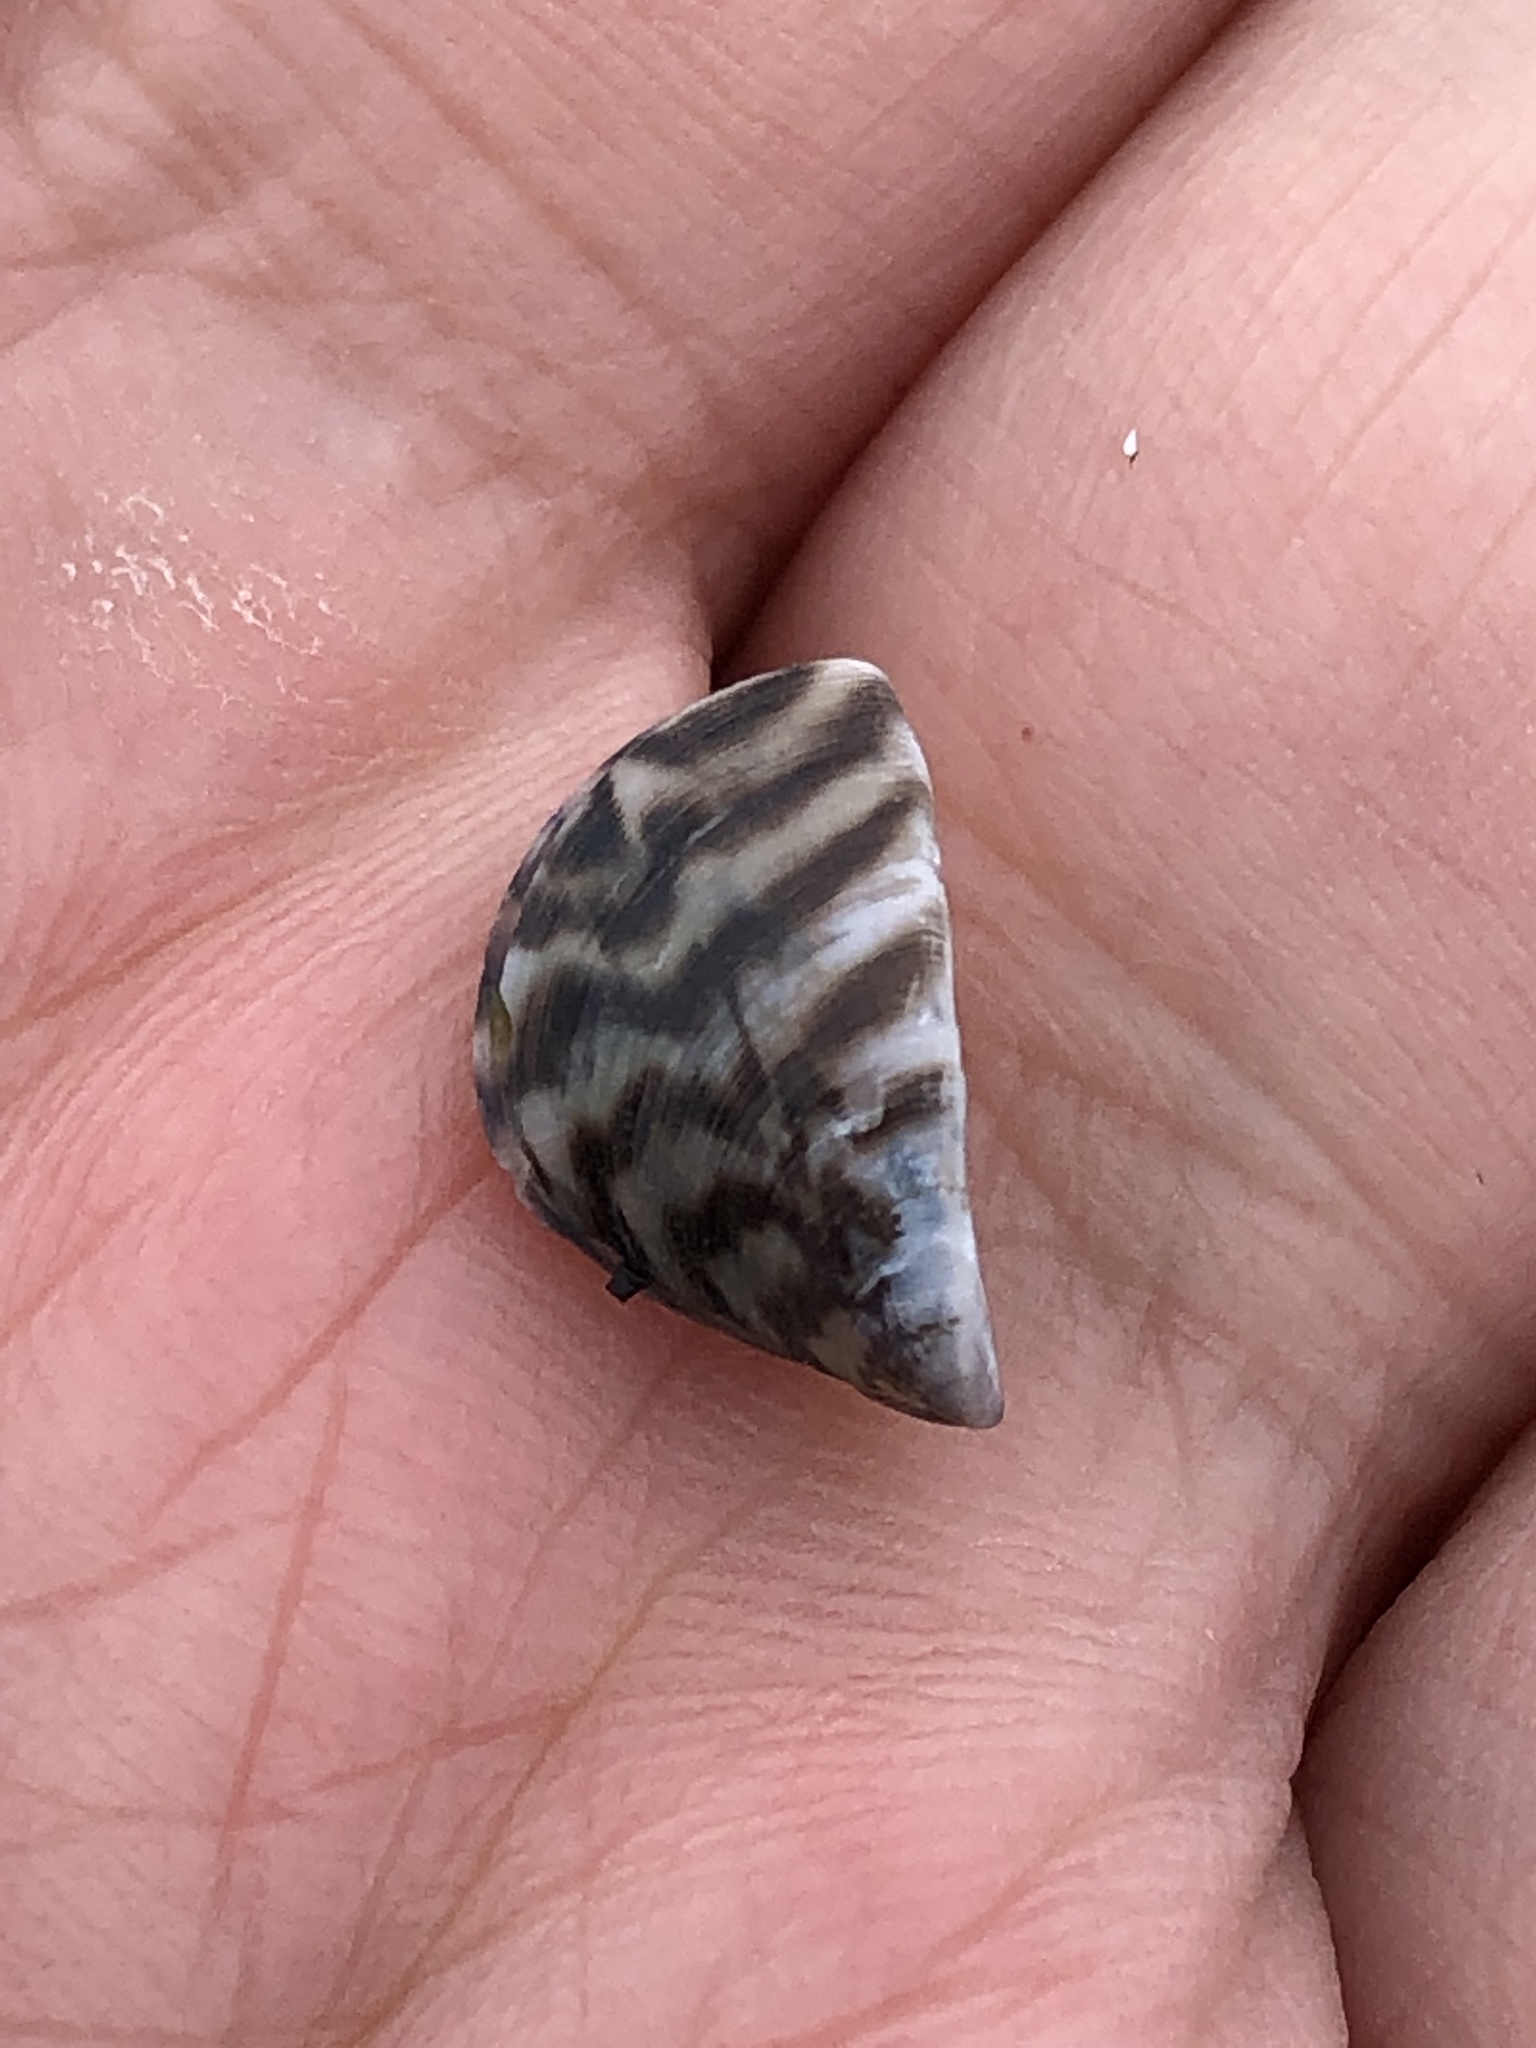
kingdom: Animalia
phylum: Mollusca
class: Bivalvia
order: Myida
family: Dreissenidae
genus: Dreissena
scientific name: Dreissena polymorpha
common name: Zebra mussel
